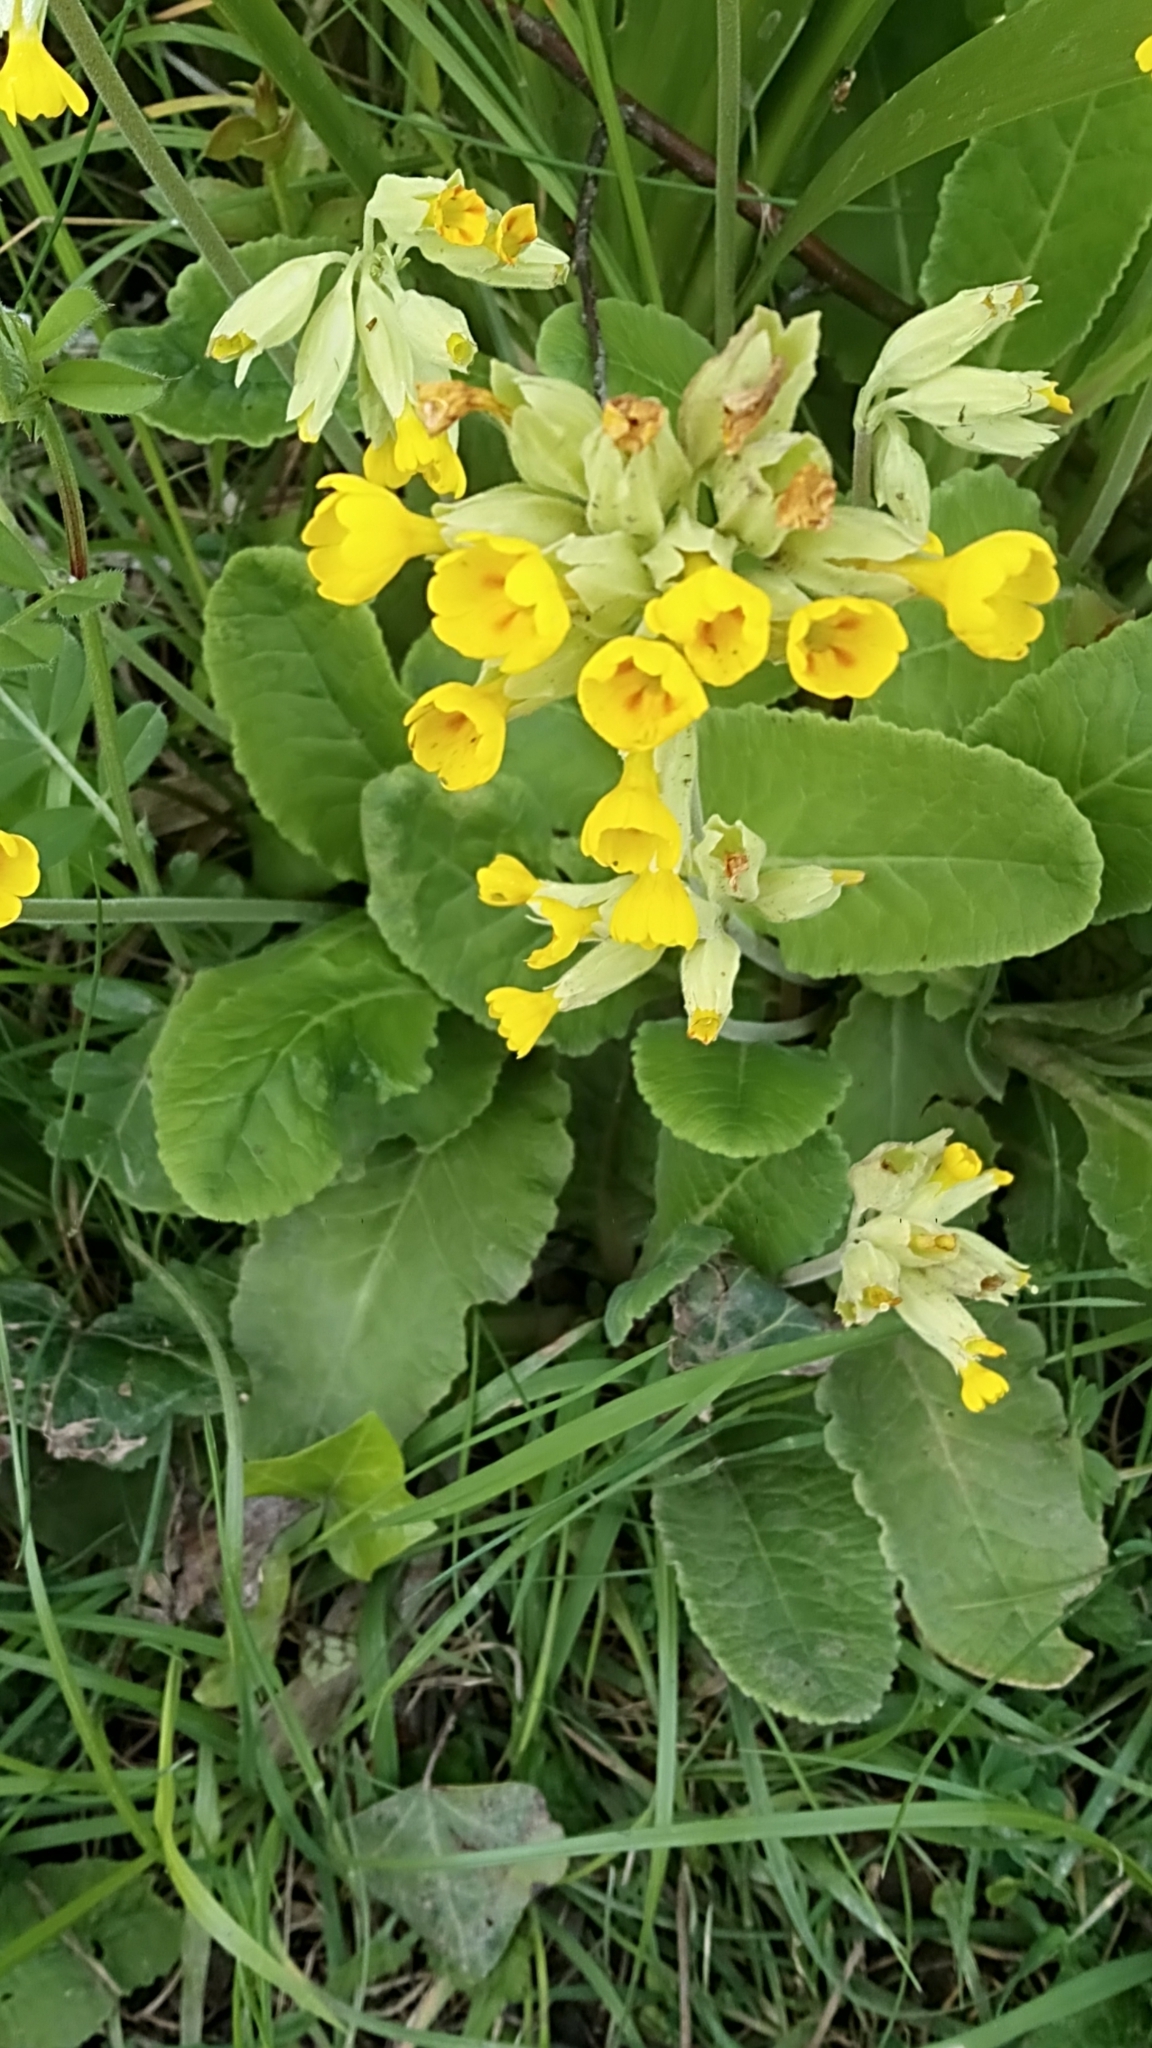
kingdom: Plantae
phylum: Tracheophyta
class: Magnoliopsida
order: Ericales
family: Primulaceae
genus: Primula
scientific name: Primula veris
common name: Cowslip
